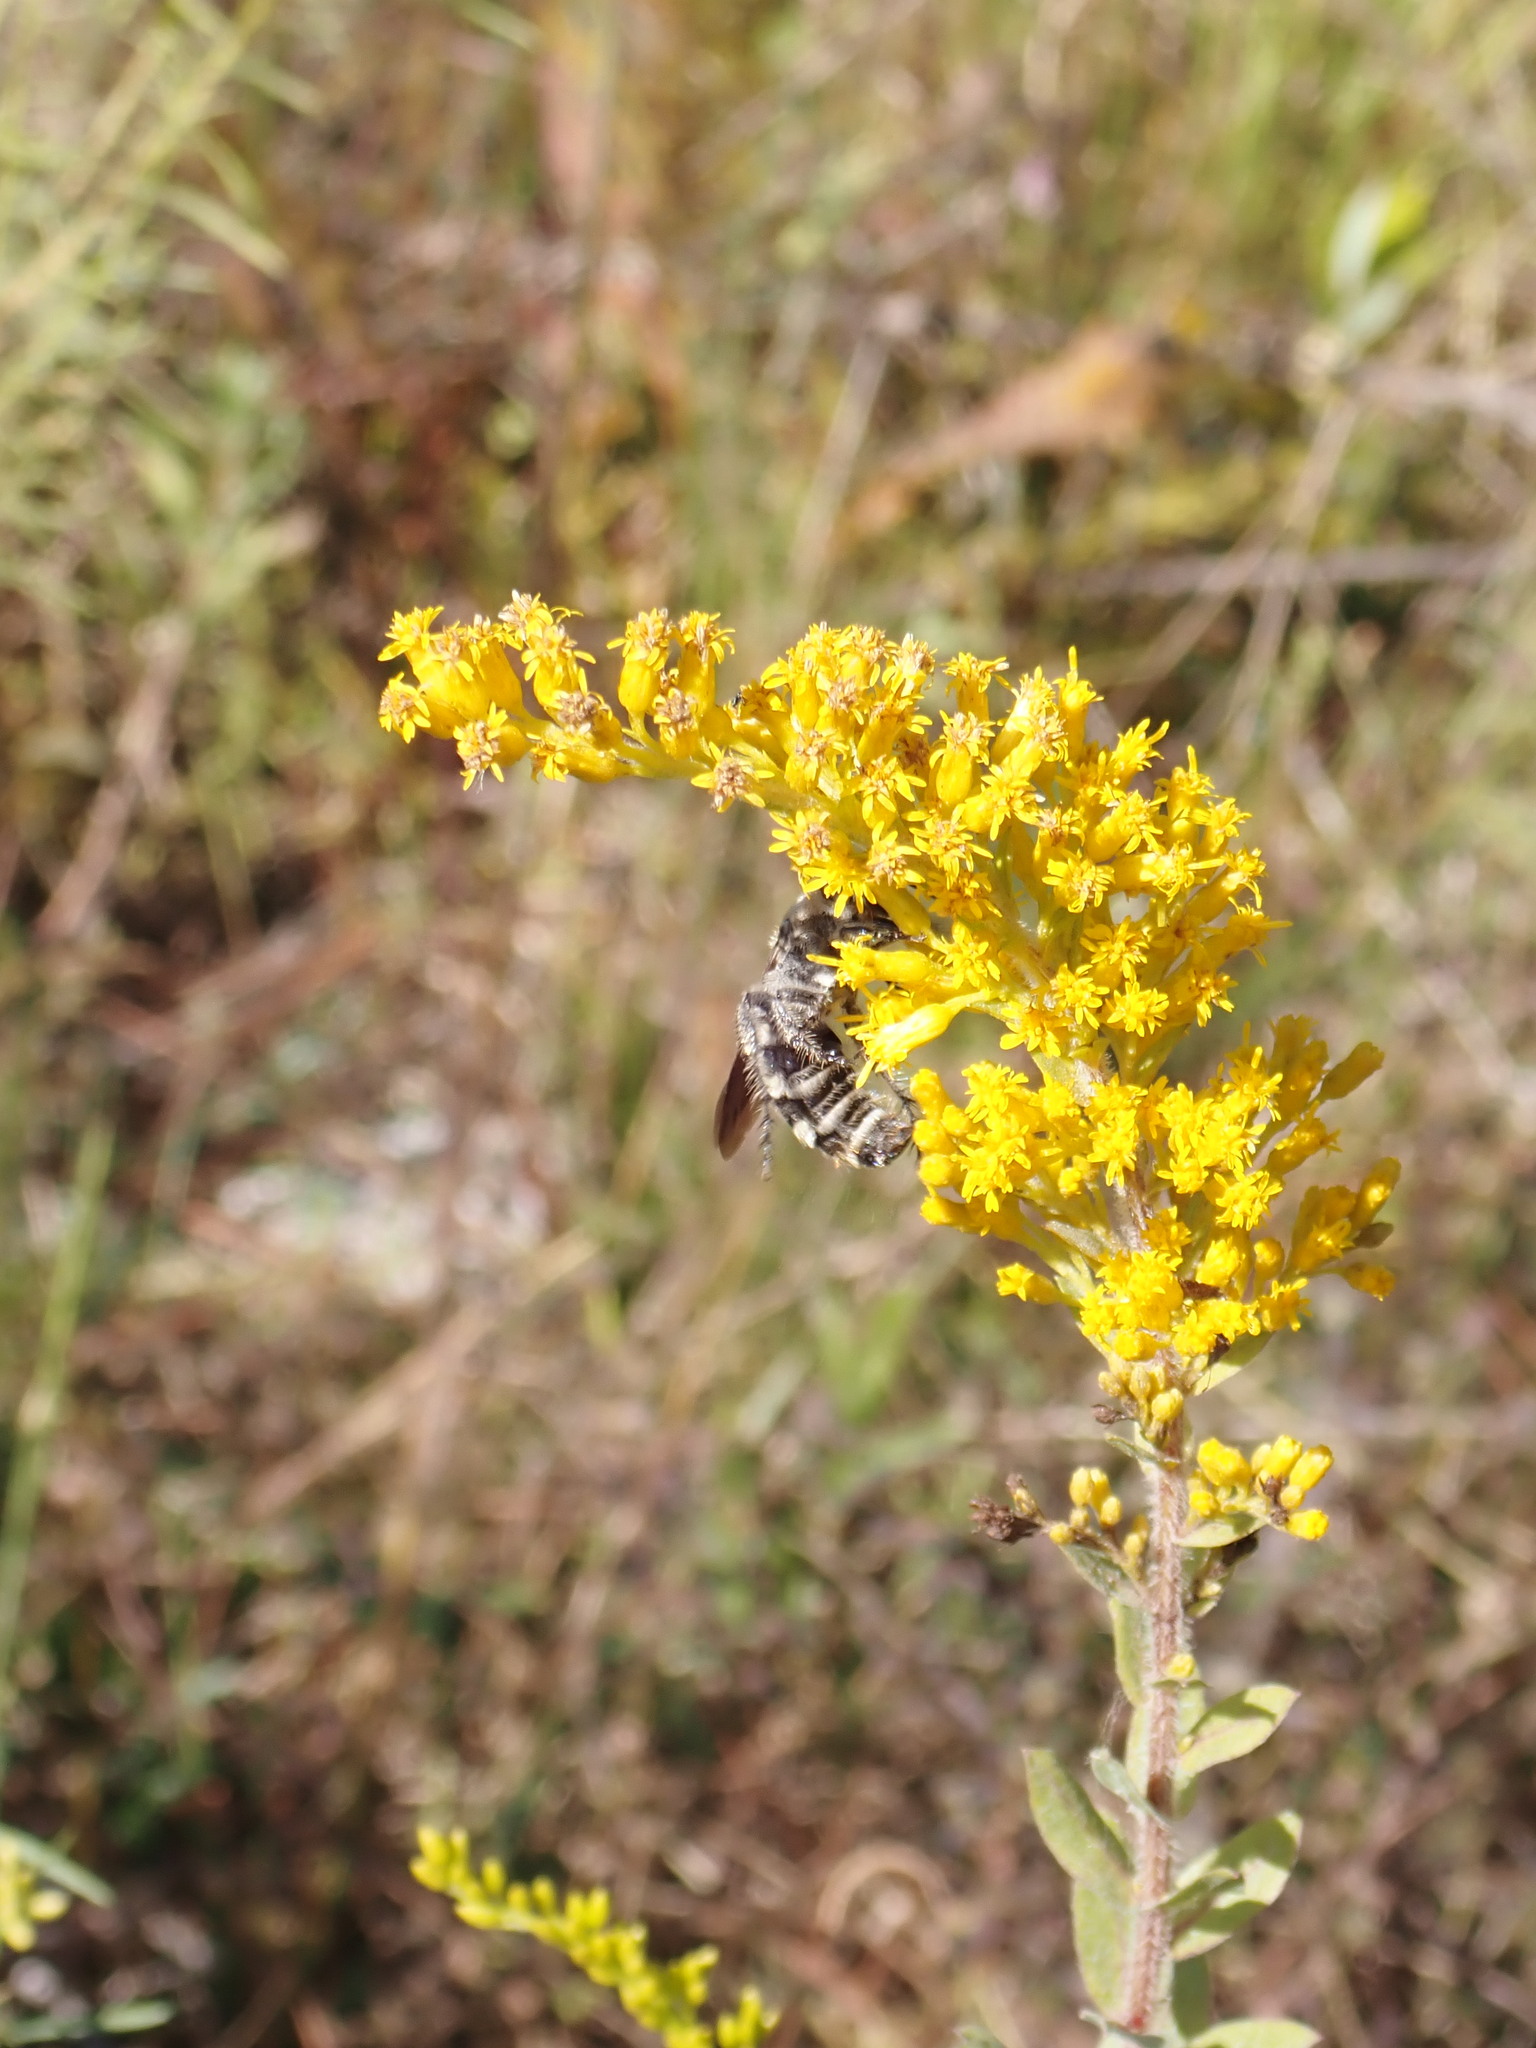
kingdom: Animalia
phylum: Arthropoda
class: Insecta
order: Hymenoptera
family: Scoliidae
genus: Dielis
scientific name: Dielis
